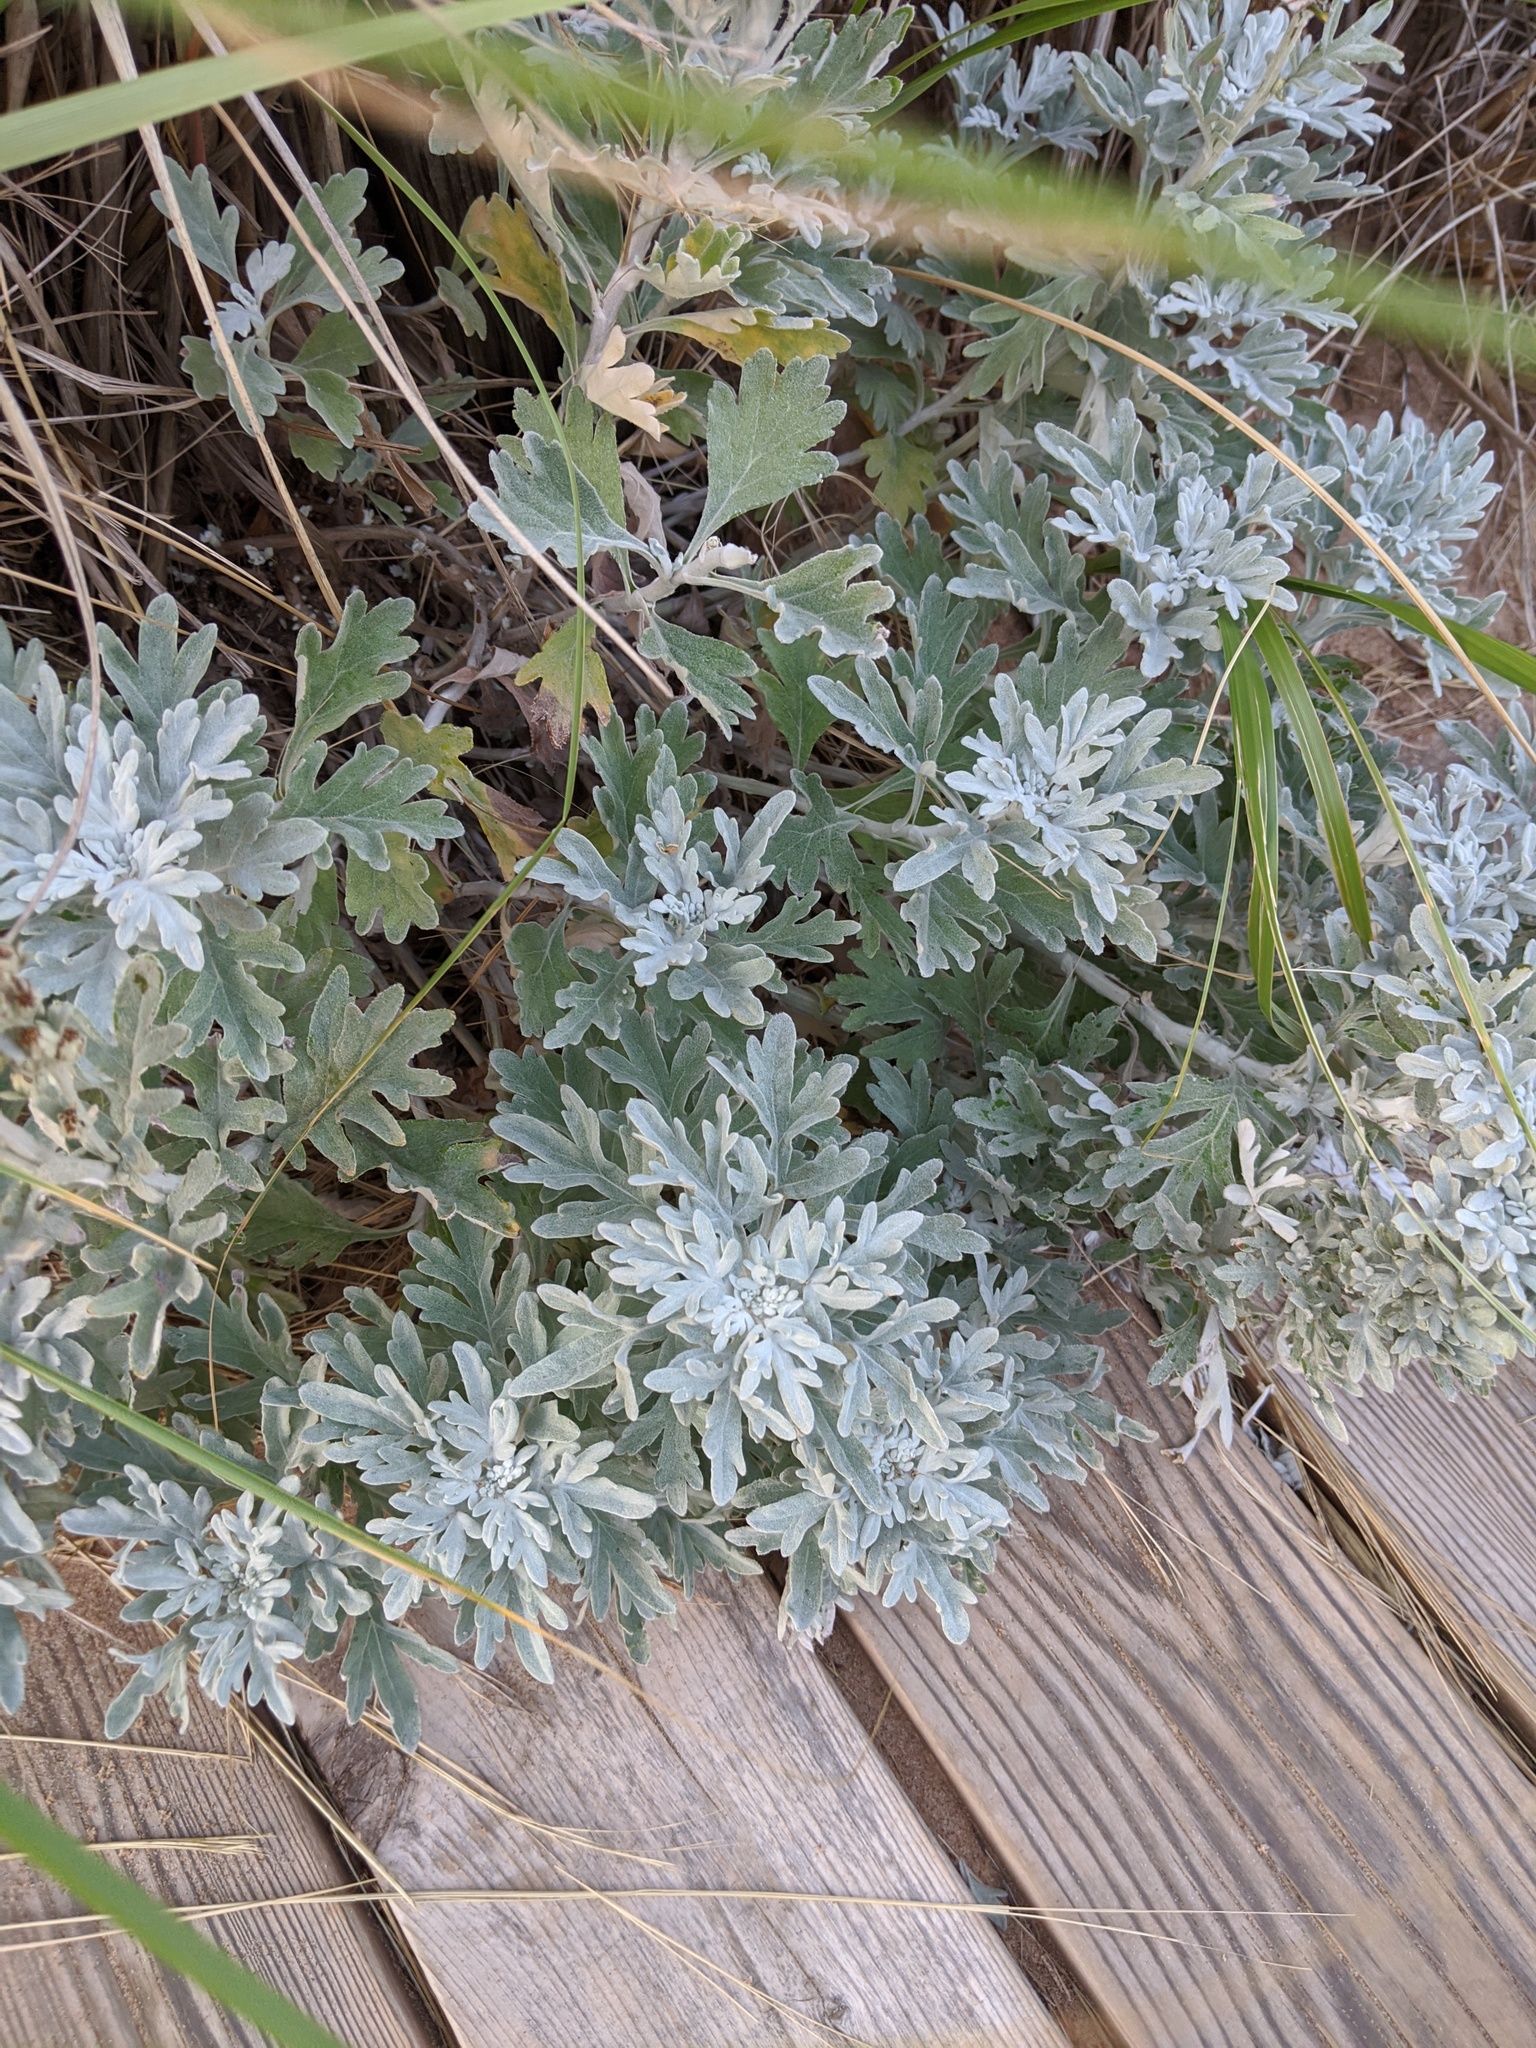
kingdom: Plantae
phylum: Tracheophyta
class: Magnoliopsida
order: Asterales
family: Asteraceae
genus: Artemisia
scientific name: Artemisia stelleriana
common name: Beach wormwood
